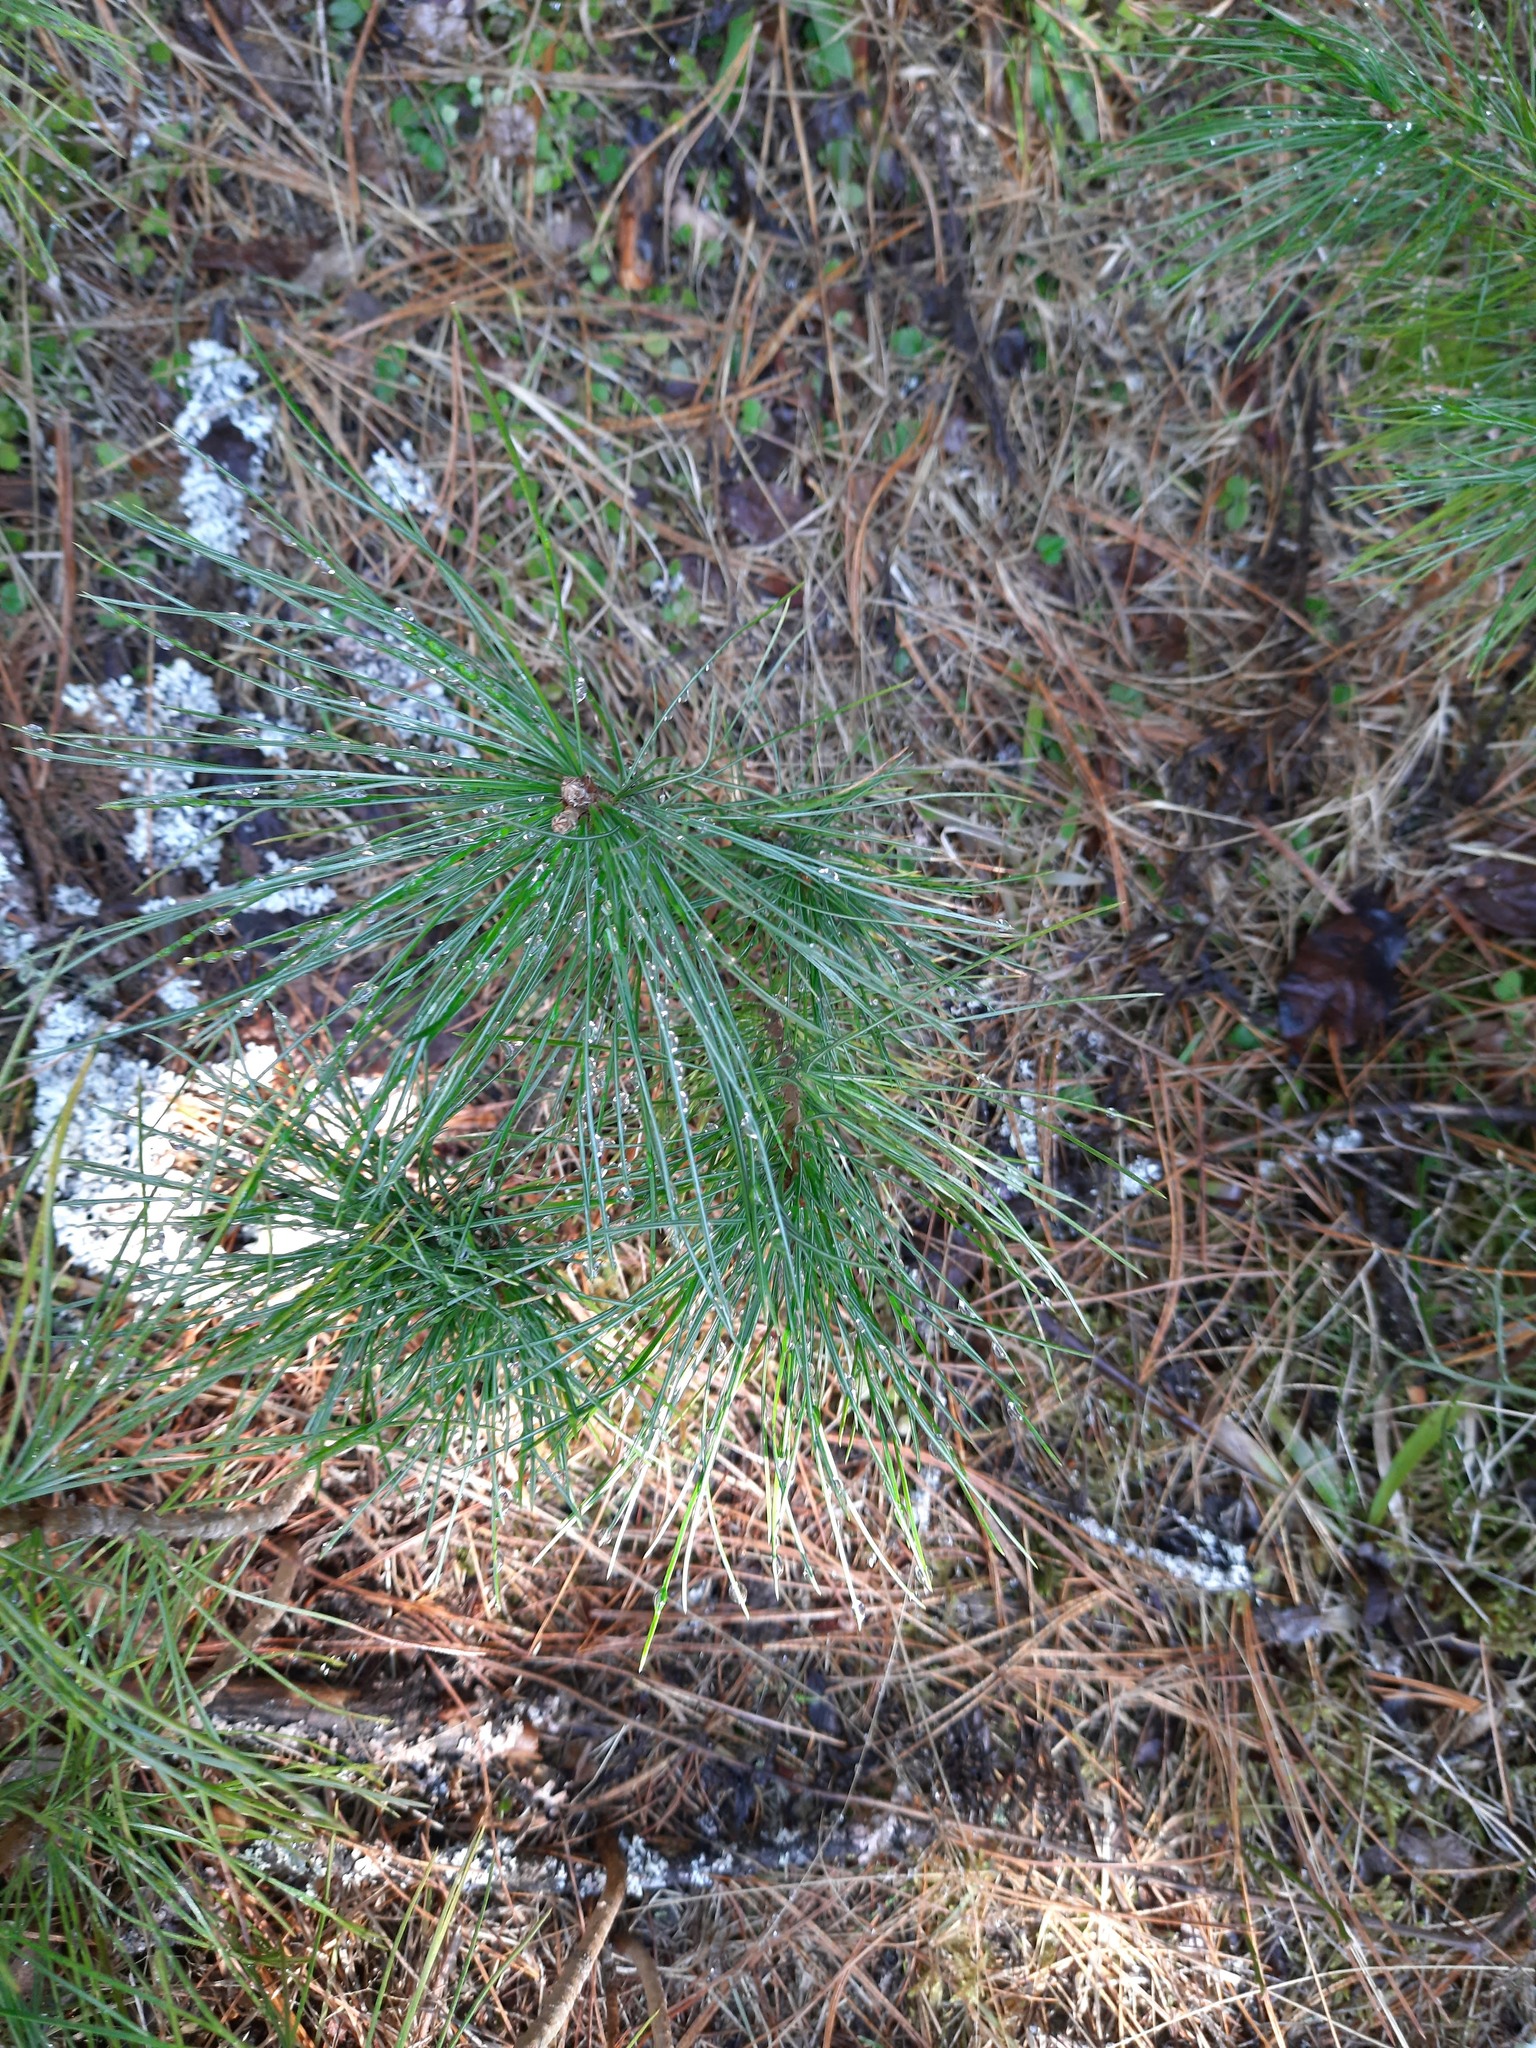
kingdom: Plantae
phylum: Tracheophyta
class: Pinopsida
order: Pinales
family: Pinaceae
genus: Pinus
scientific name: Pinus sibirica
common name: Siberian pine
